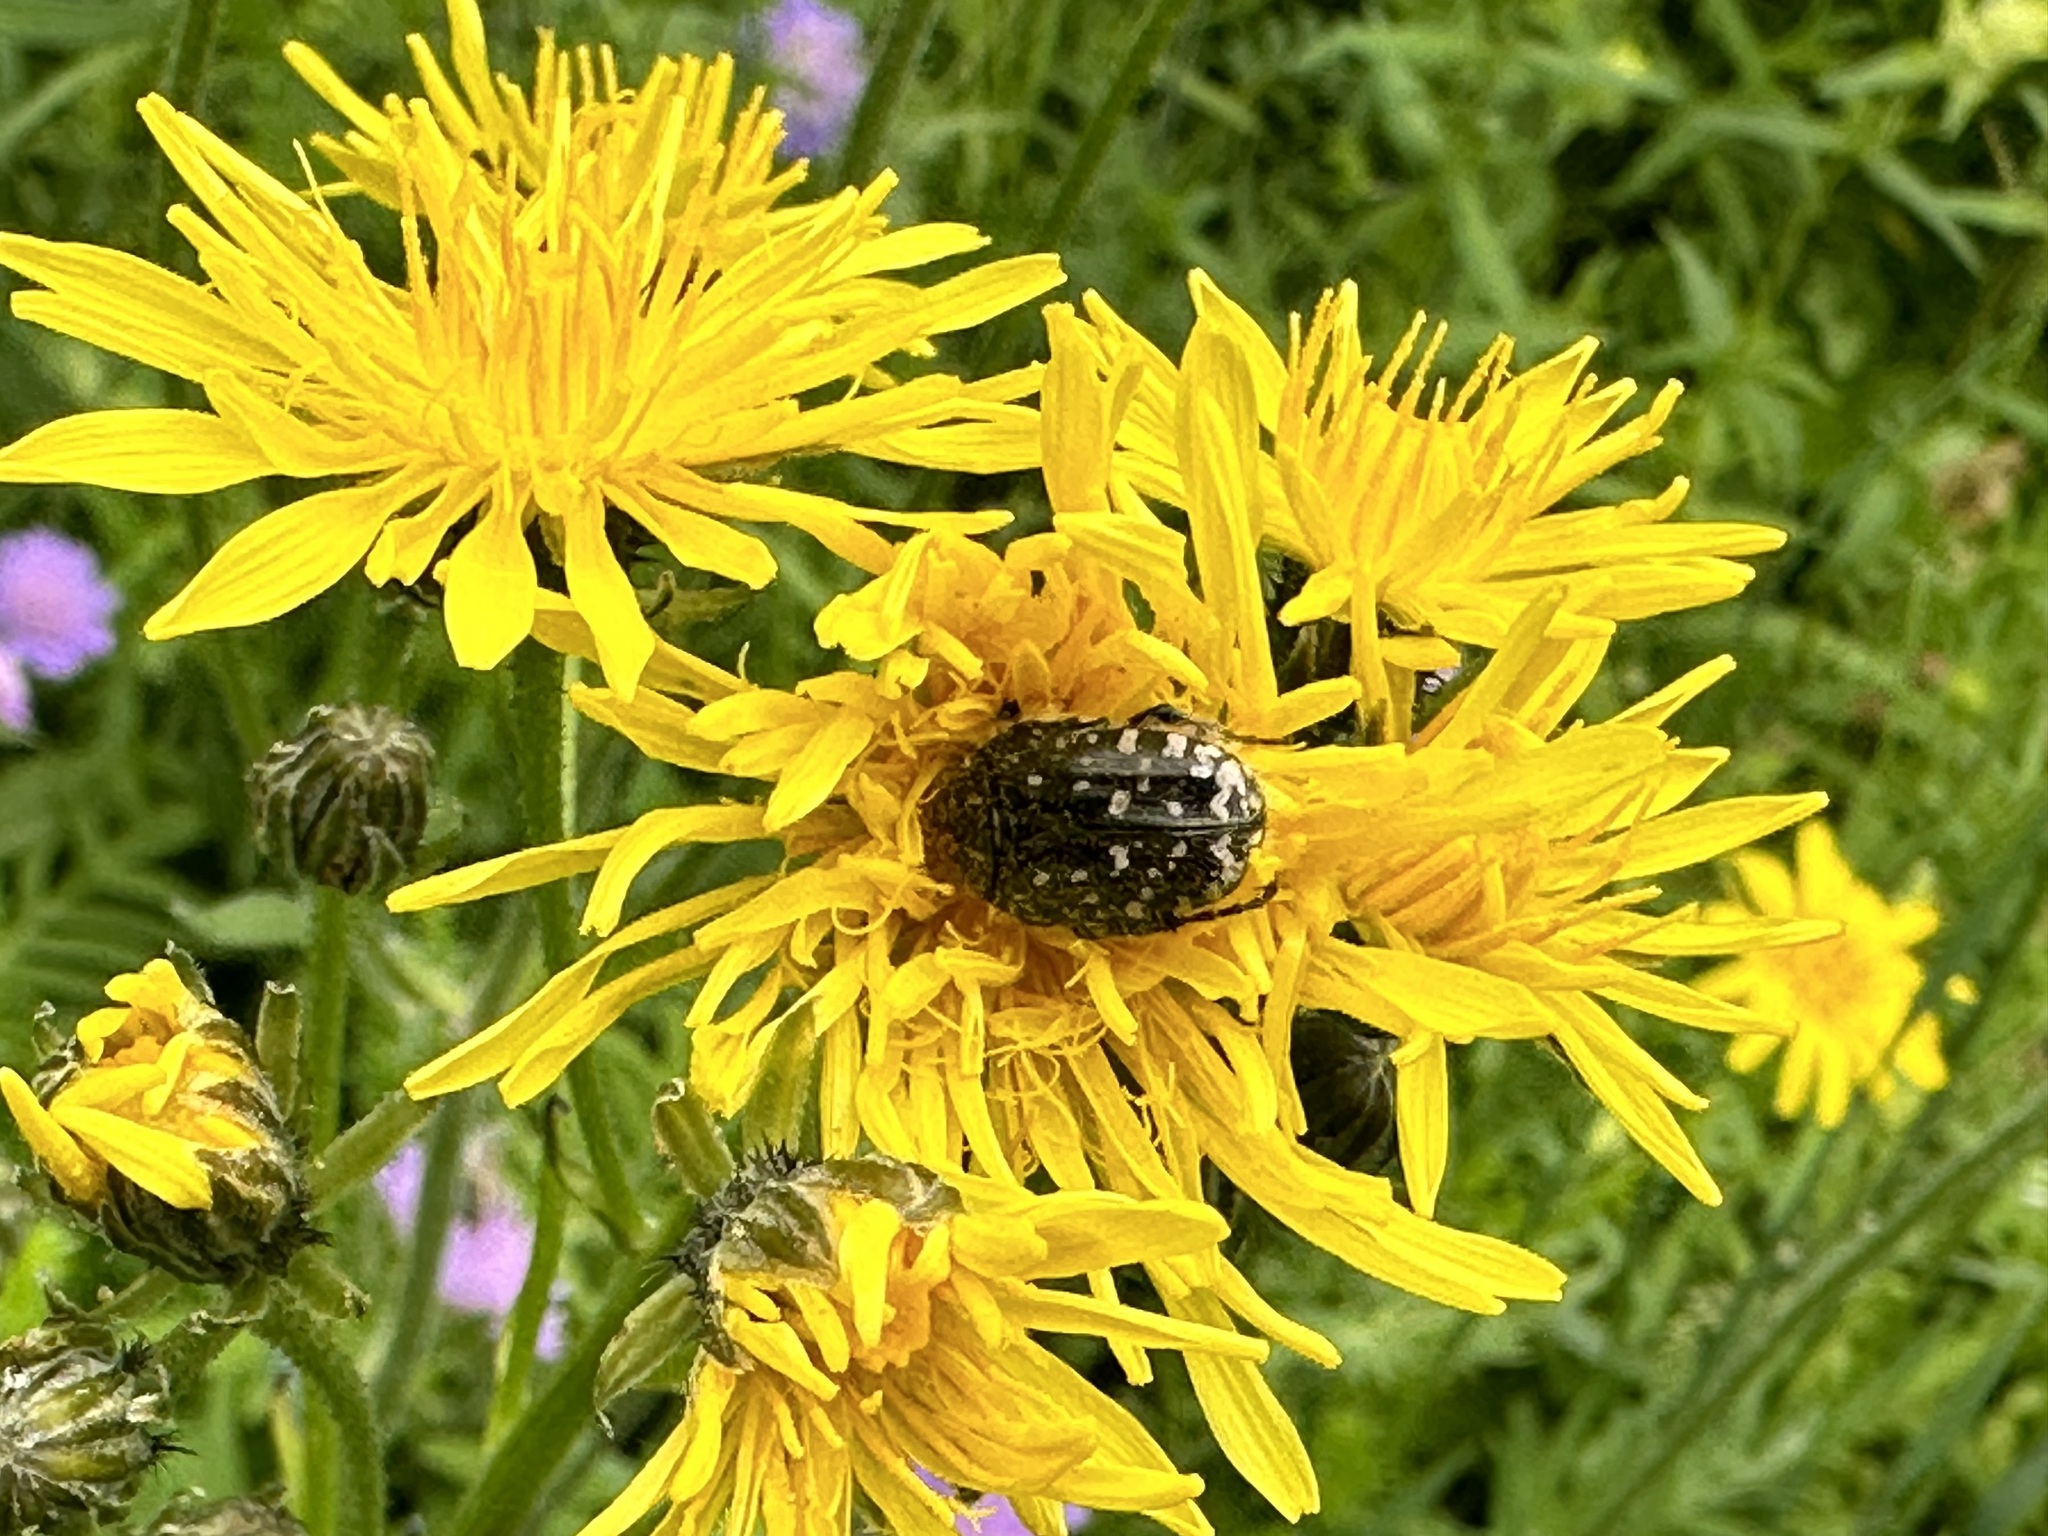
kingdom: Animalia
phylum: Arthropoda
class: Insecta
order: Coleoptera
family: Scarabaeidae
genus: Oxythyrea
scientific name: Oxythyrea funesta
